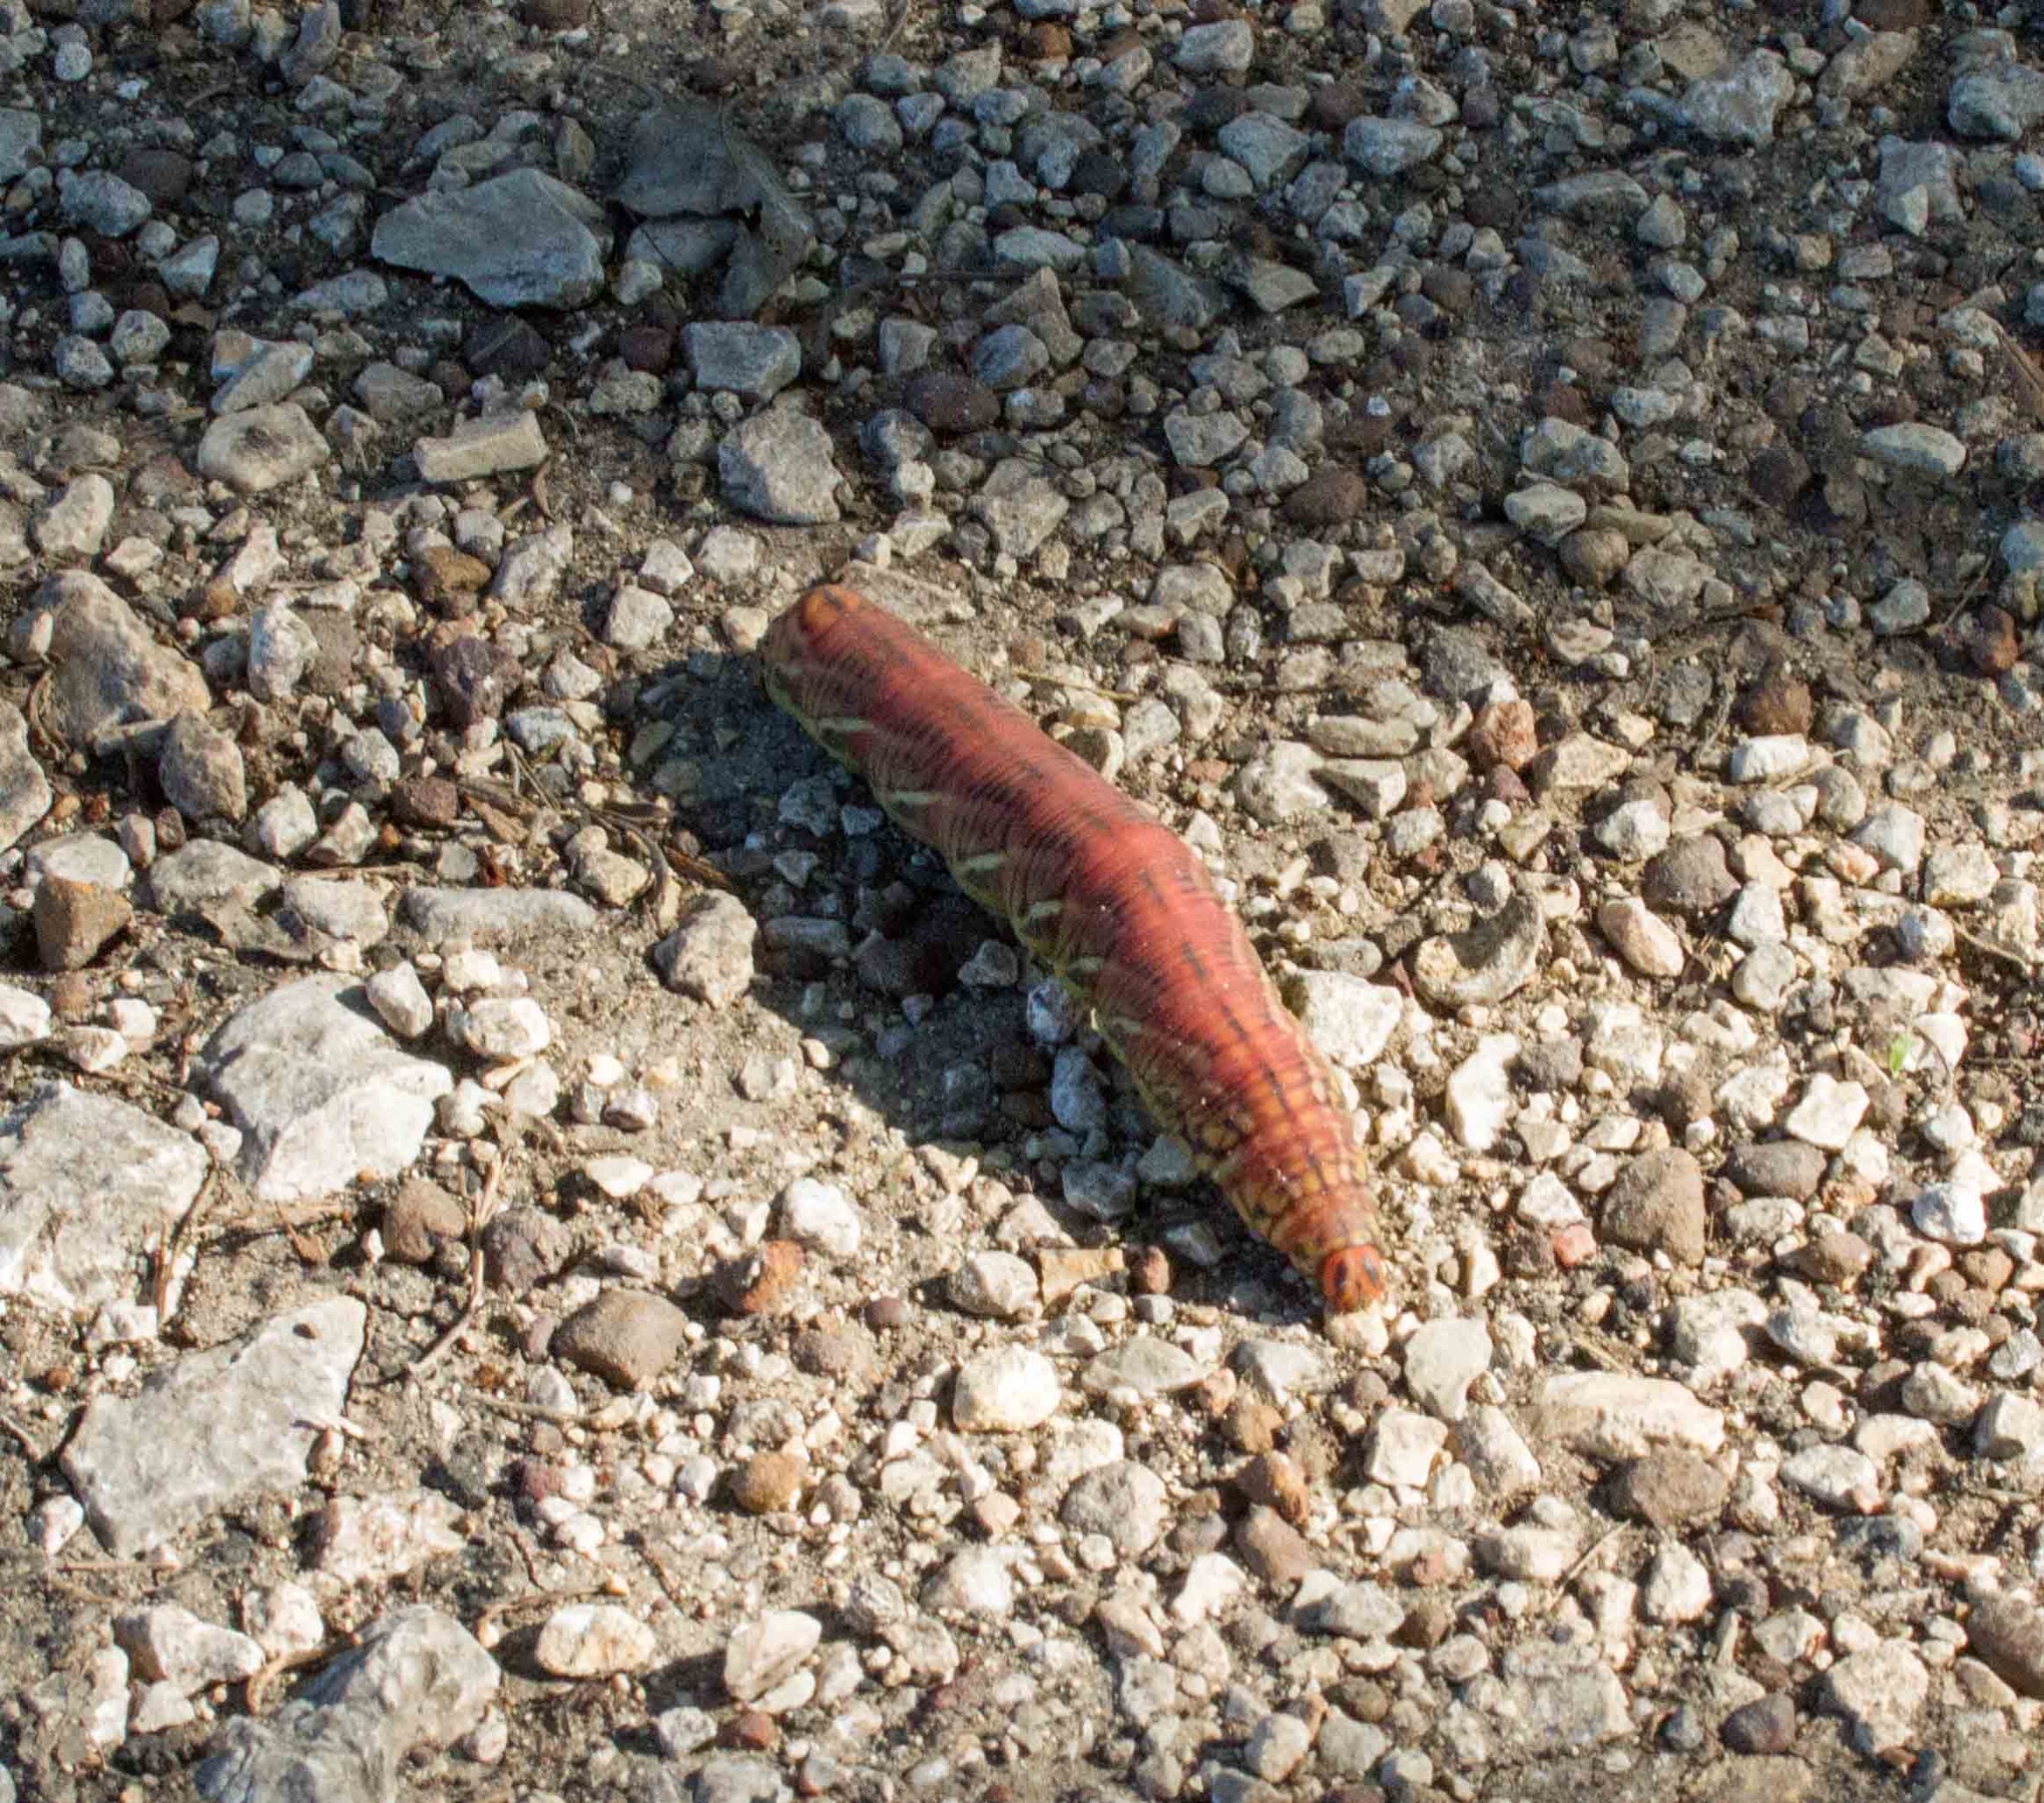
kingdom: Animalia
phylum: Arthropoda
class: Insecta
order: Lepidoptera
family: Sphingidae
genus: Eumorpha
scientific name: Eumorpha fasciatus
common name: Banded sphinx
